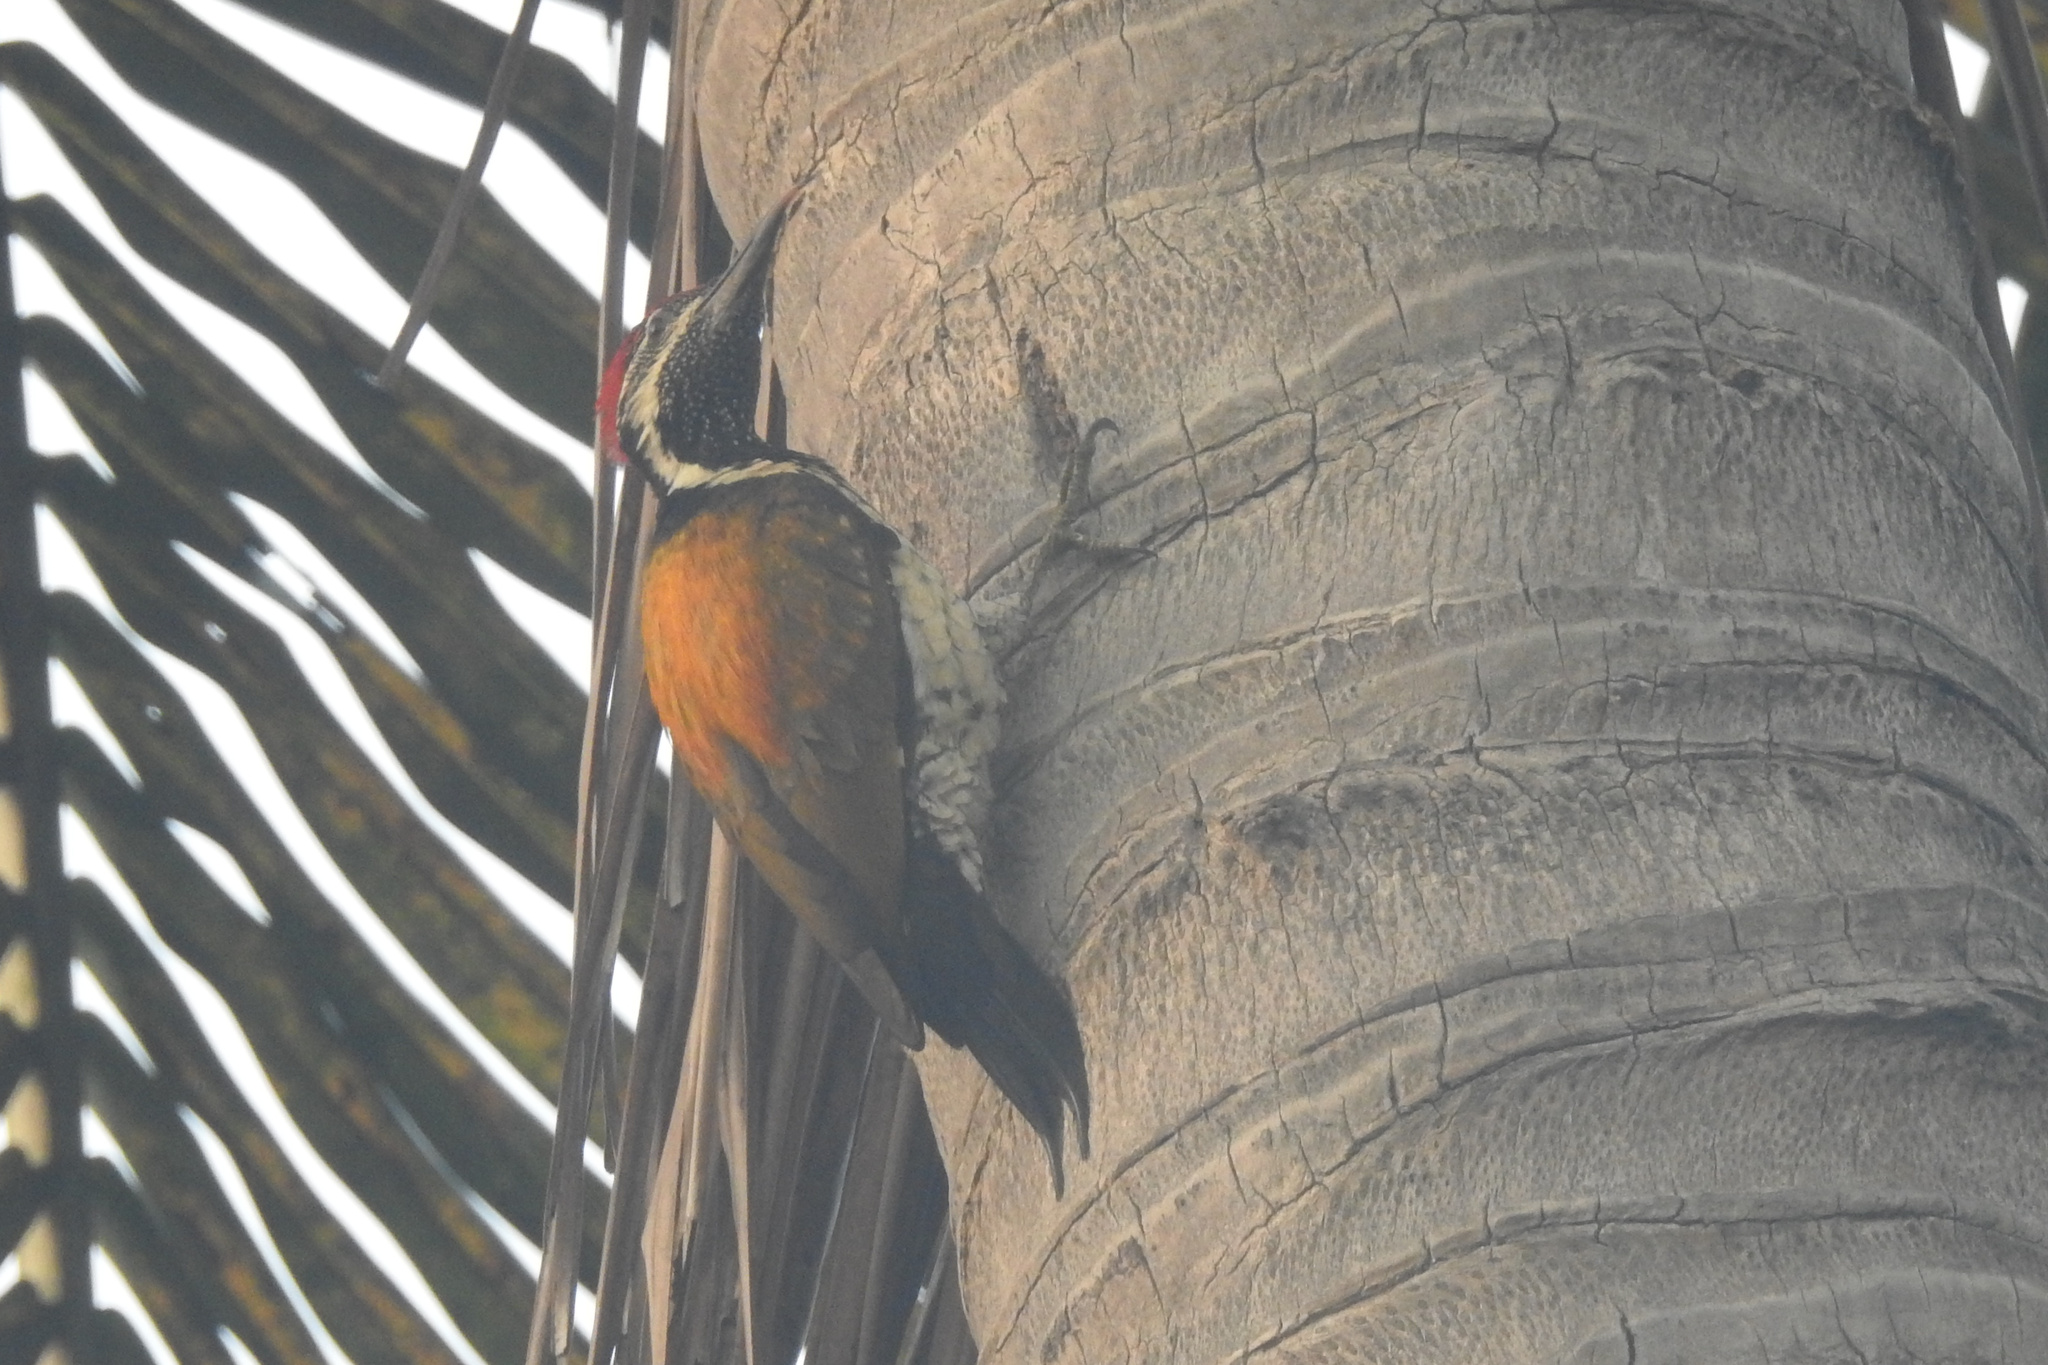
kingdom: Animalia
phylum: Chordata
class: Aves
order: Piciformes
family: Picidae
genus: Dinopium
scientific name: Dinopium benghalense
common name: Black-rumped flameback
